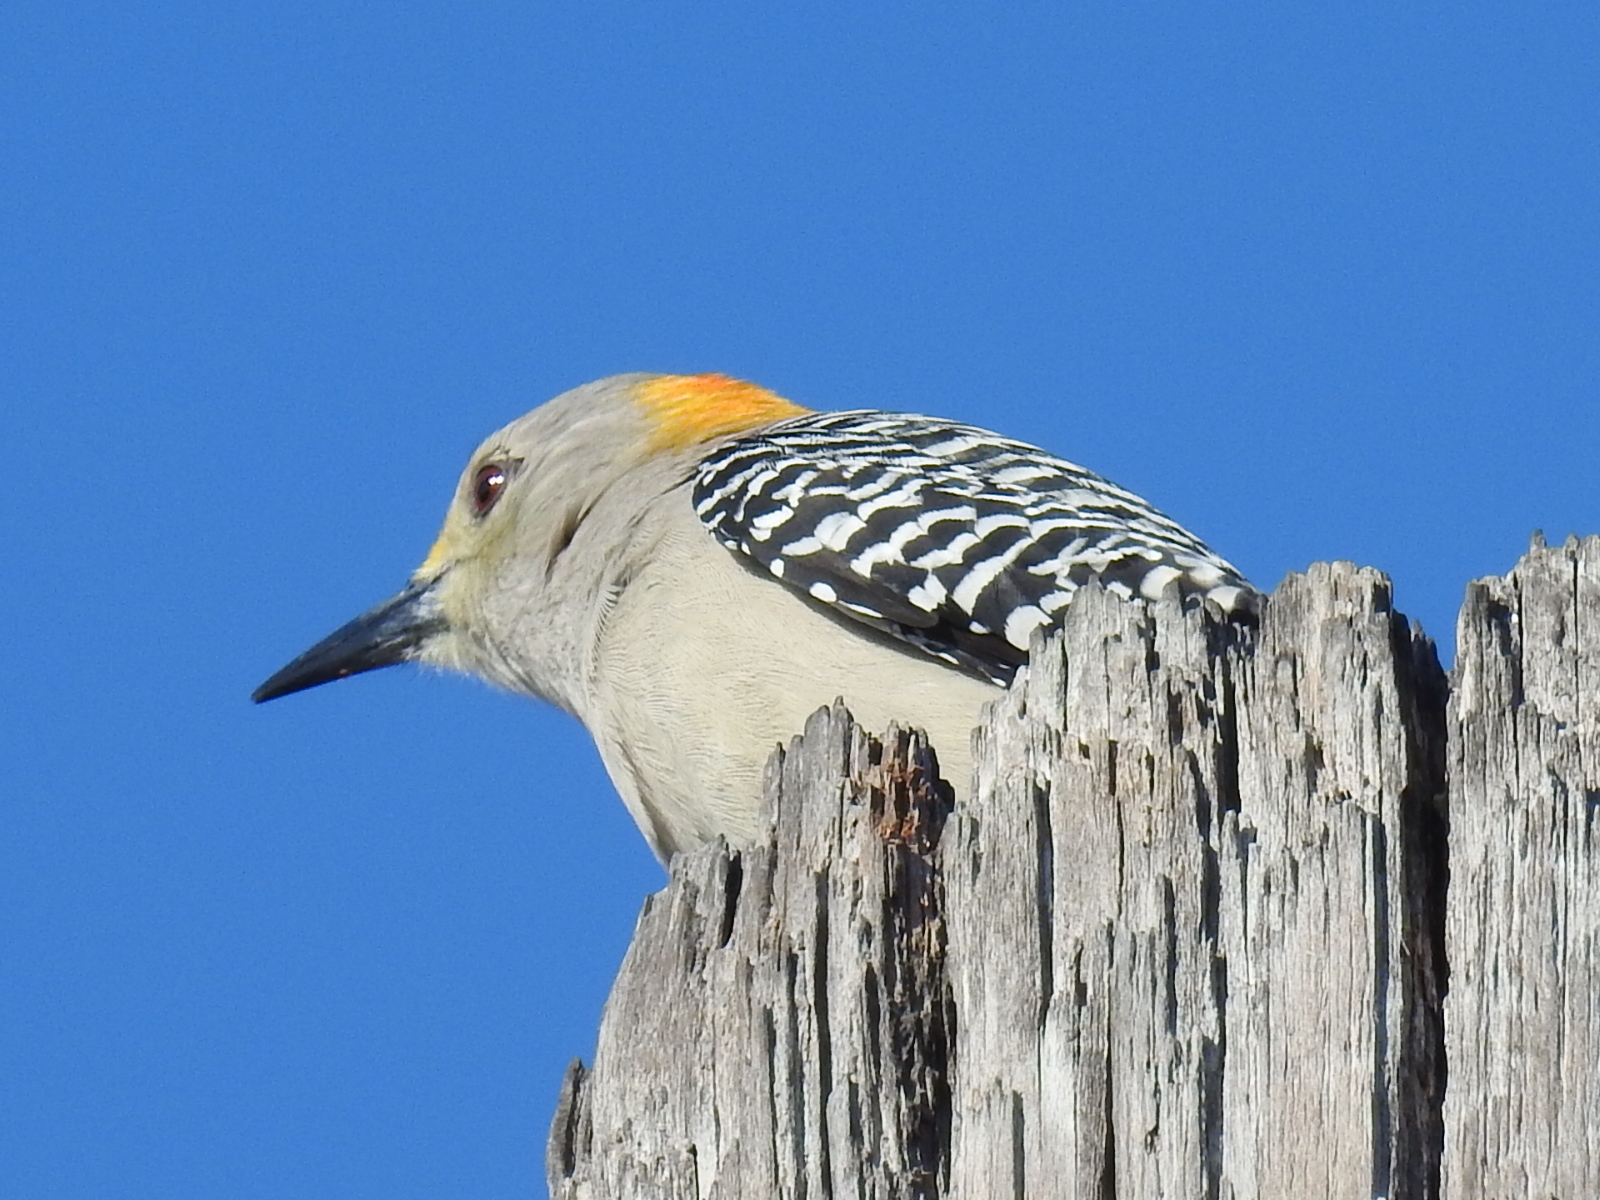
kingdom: Animalia
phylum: Chordata
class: Aves
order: Piciformes
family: Picidae
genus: Melanerpes
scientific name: Melanerpes aurifrons
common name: Golden-fronted woodpecker
